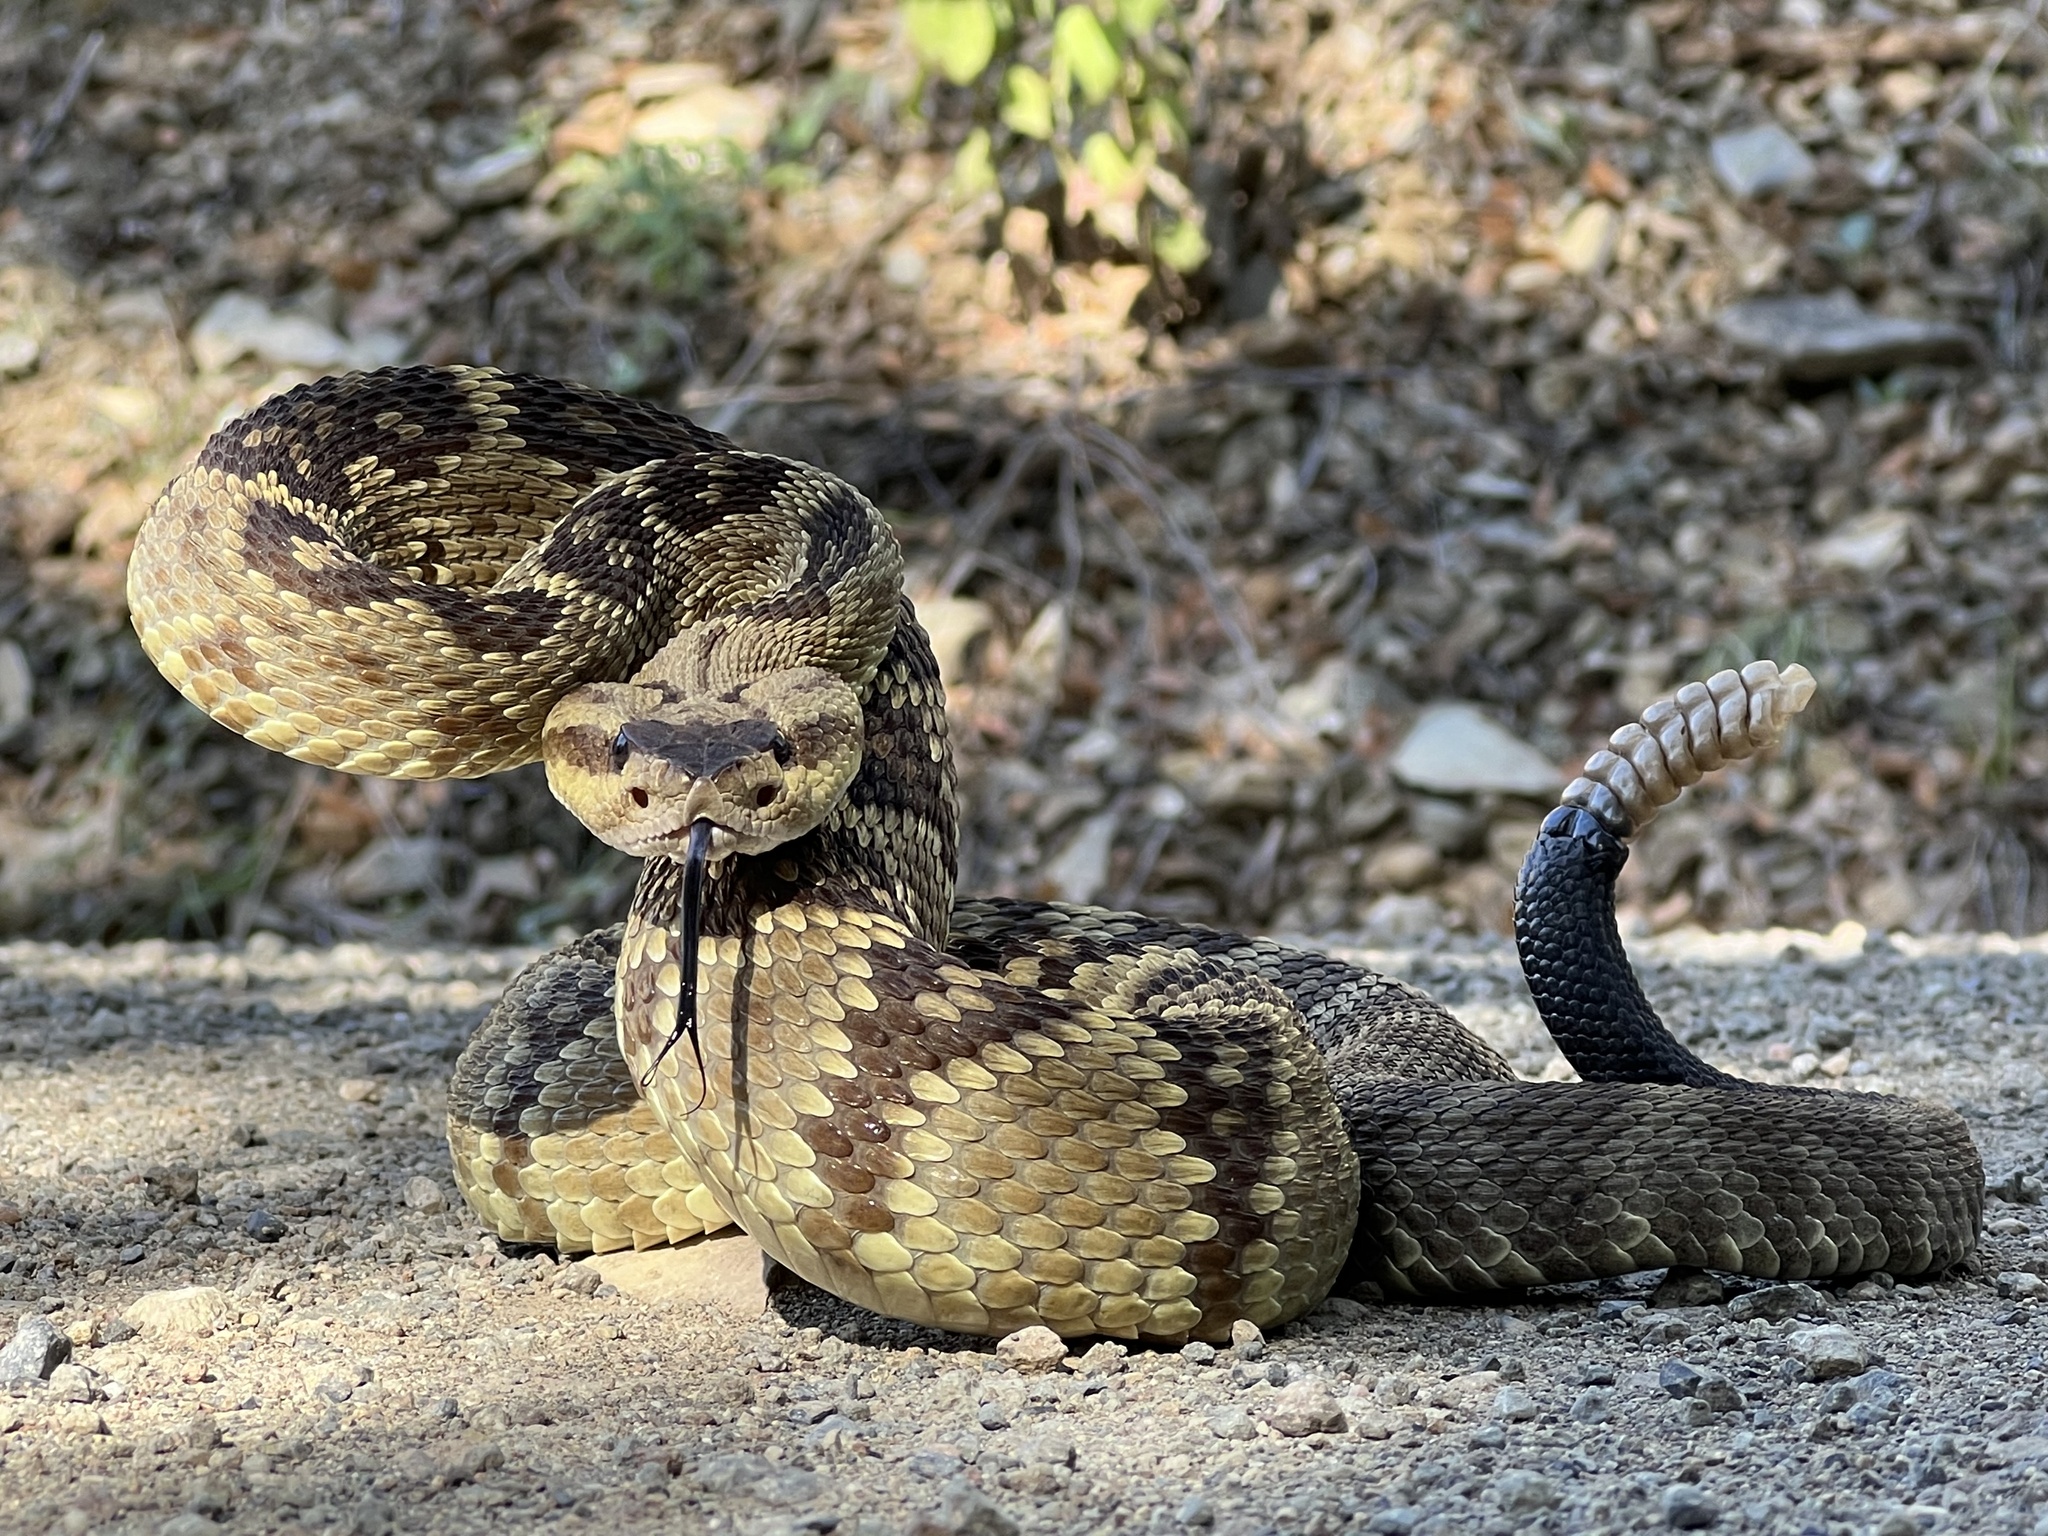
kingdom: Animalia
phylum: Chordata
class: Squamata
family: Viperidae
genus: Crotalus
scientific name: Crotalus molossus
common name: Black tailed rattlesnake
